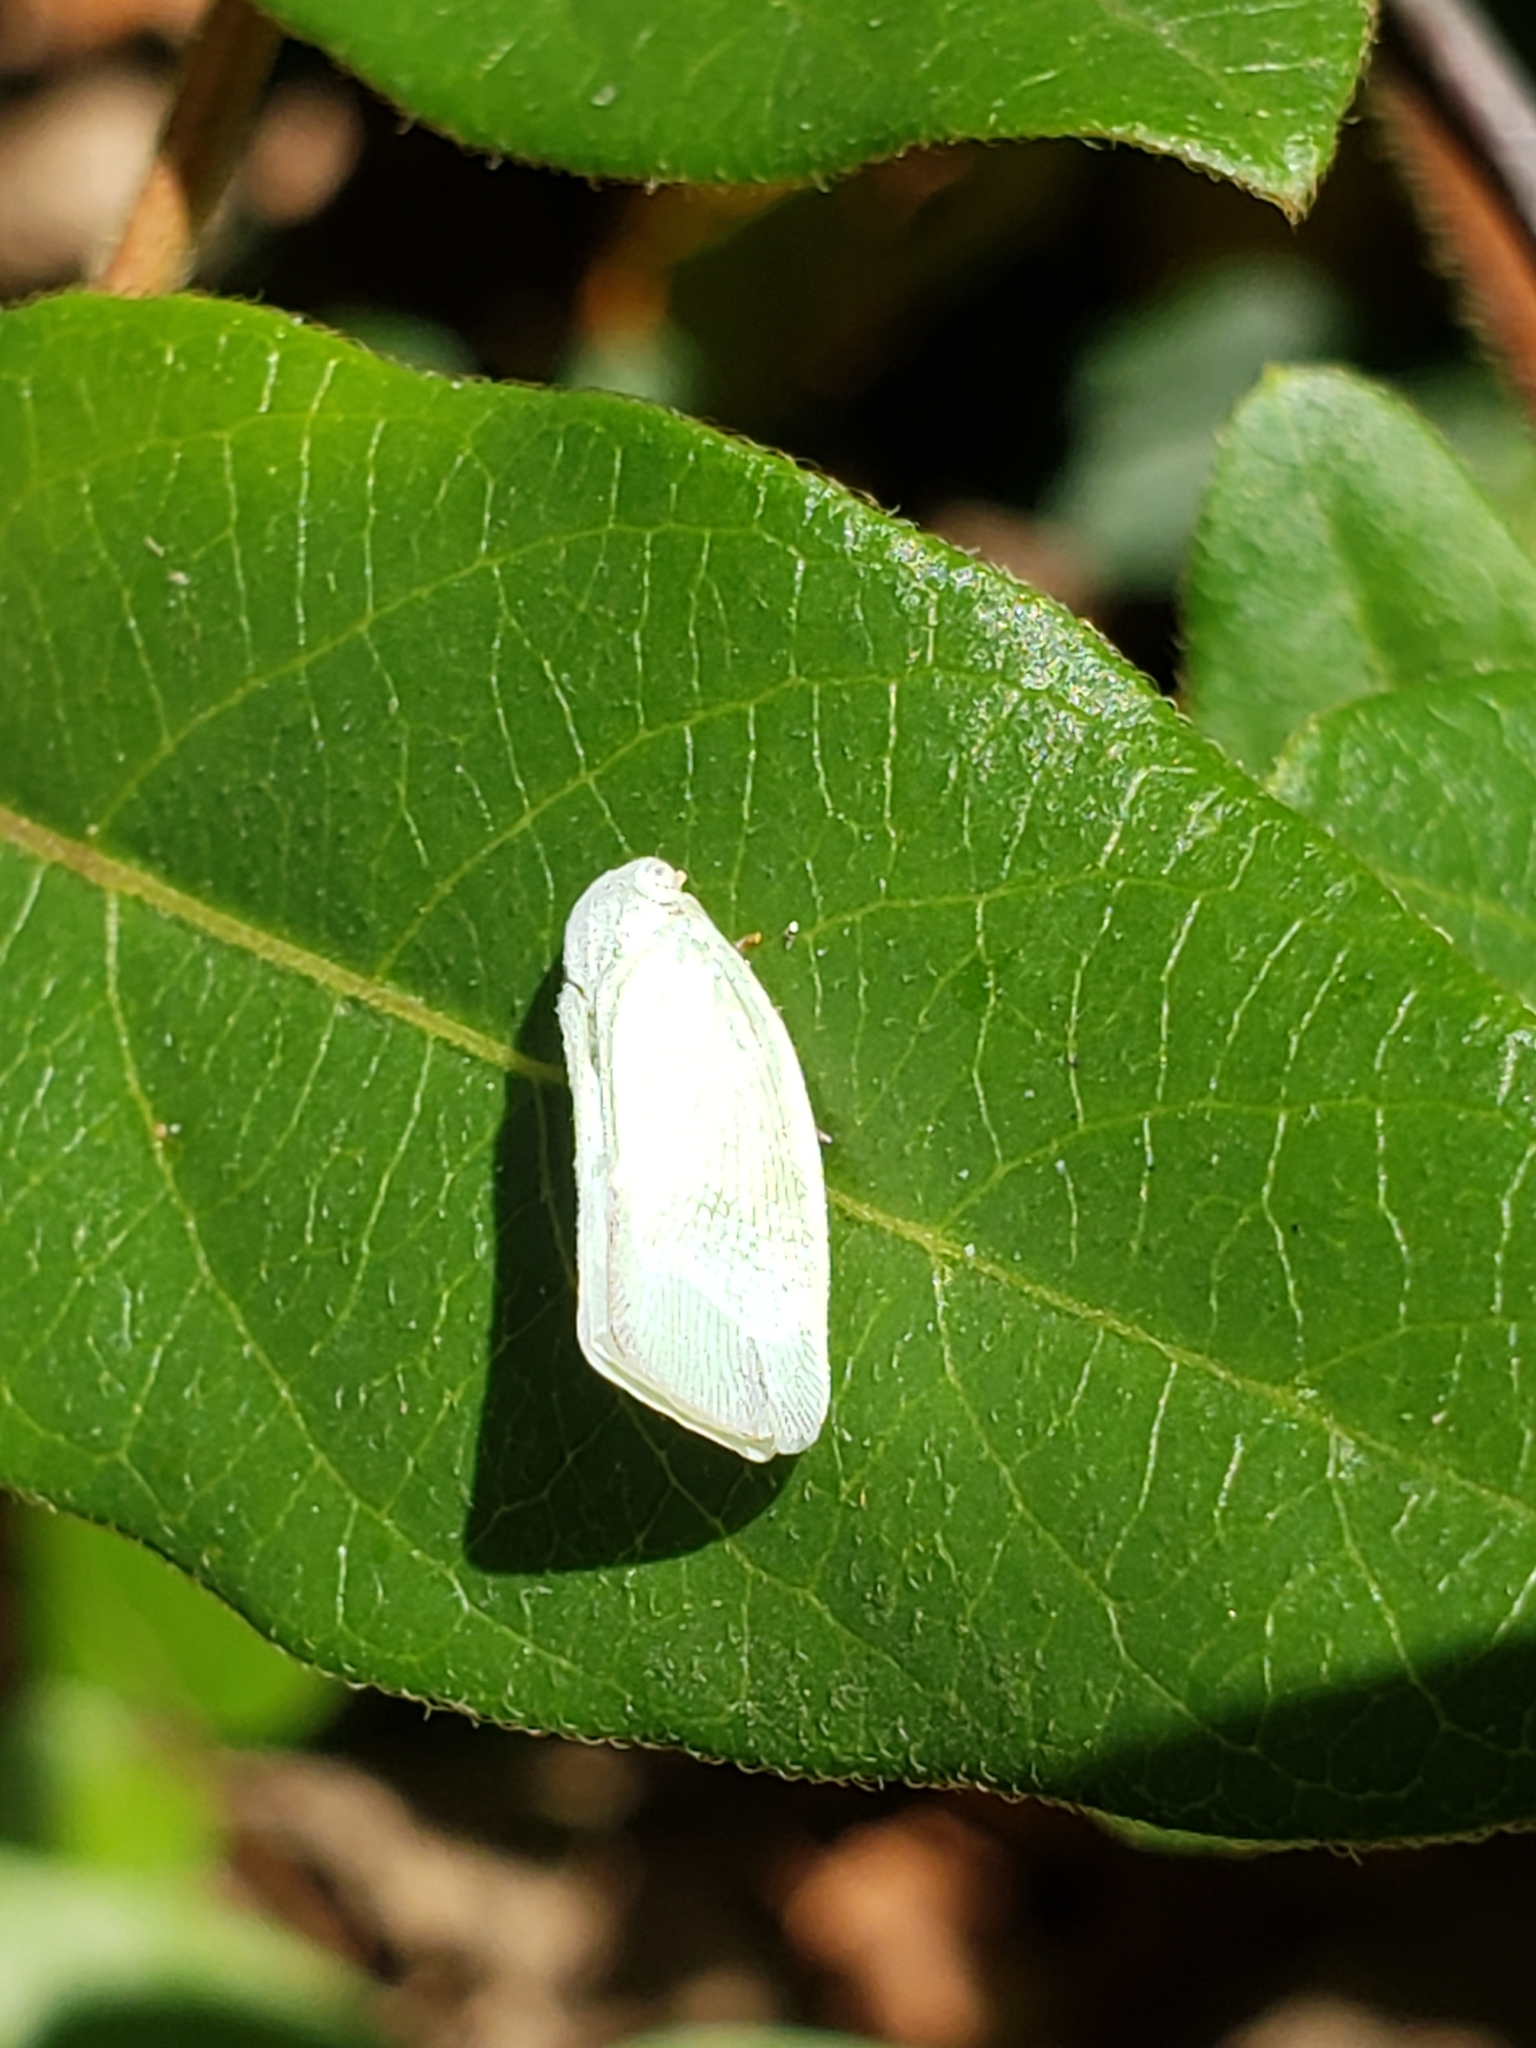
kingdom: Animalia
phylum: Arthropoda
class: Insecta
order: Hemiptera
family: Flatidae
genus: Flatormenis
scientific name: Flatormenis proxima
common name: Northern flatid planthopper
